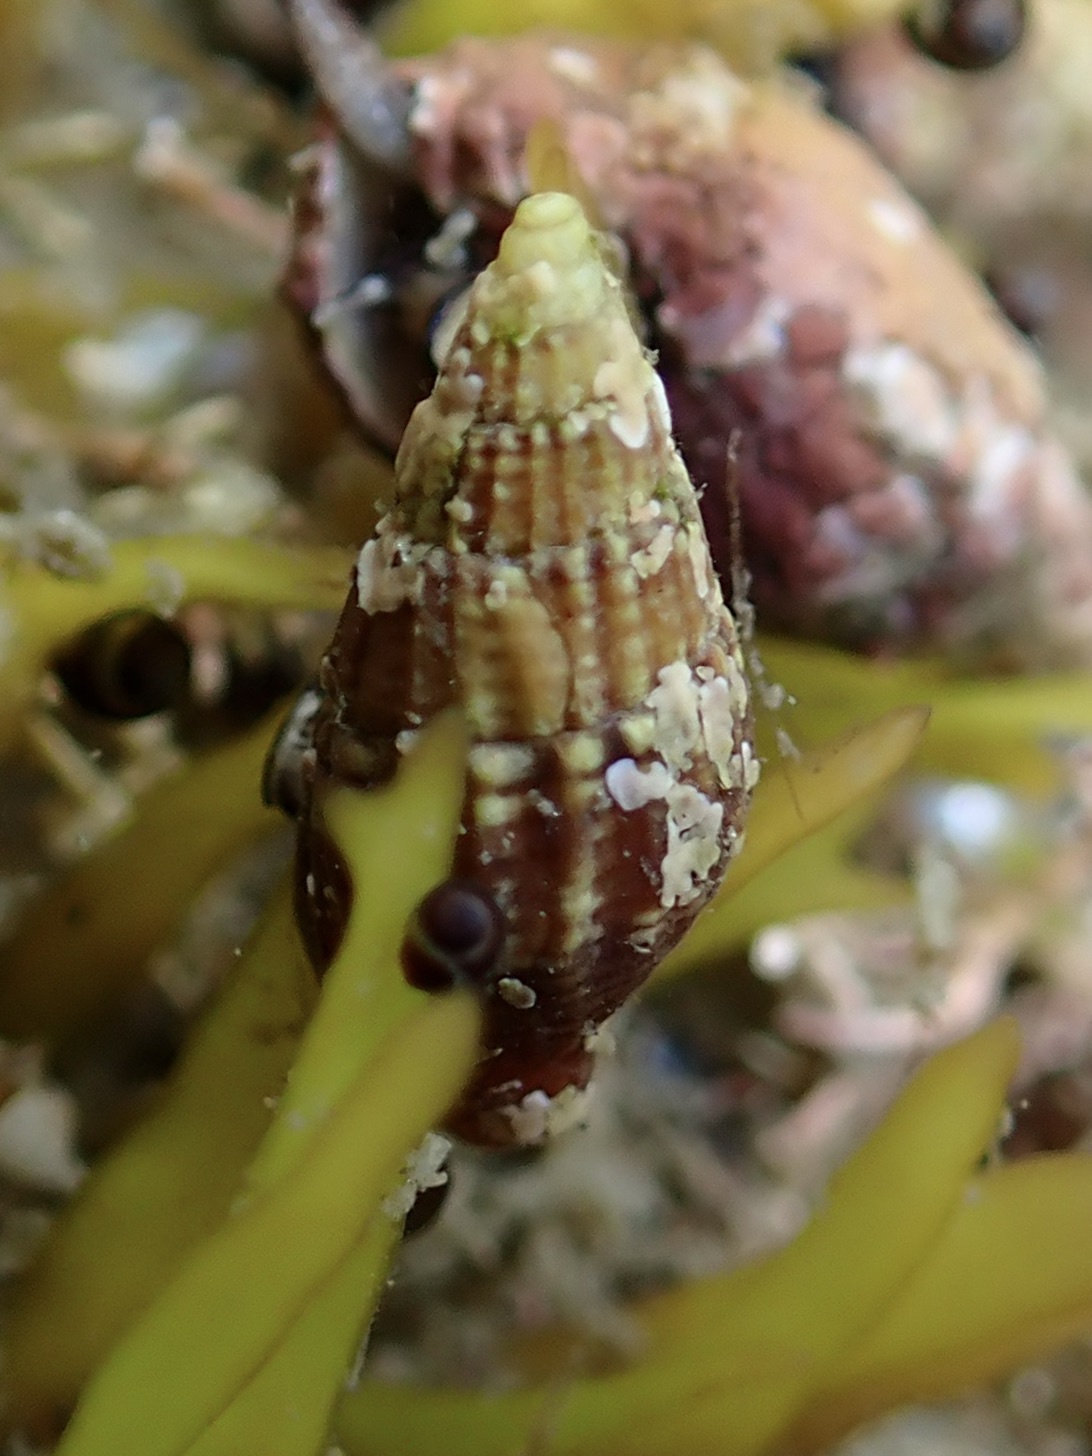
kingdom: Animalia
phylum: Mollusca
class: Gastropoda
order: Neogastropoda
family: Nassariidae
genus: Ilyanassa
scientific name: Ilyanassa trivittata
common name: Three-line mudsnail
